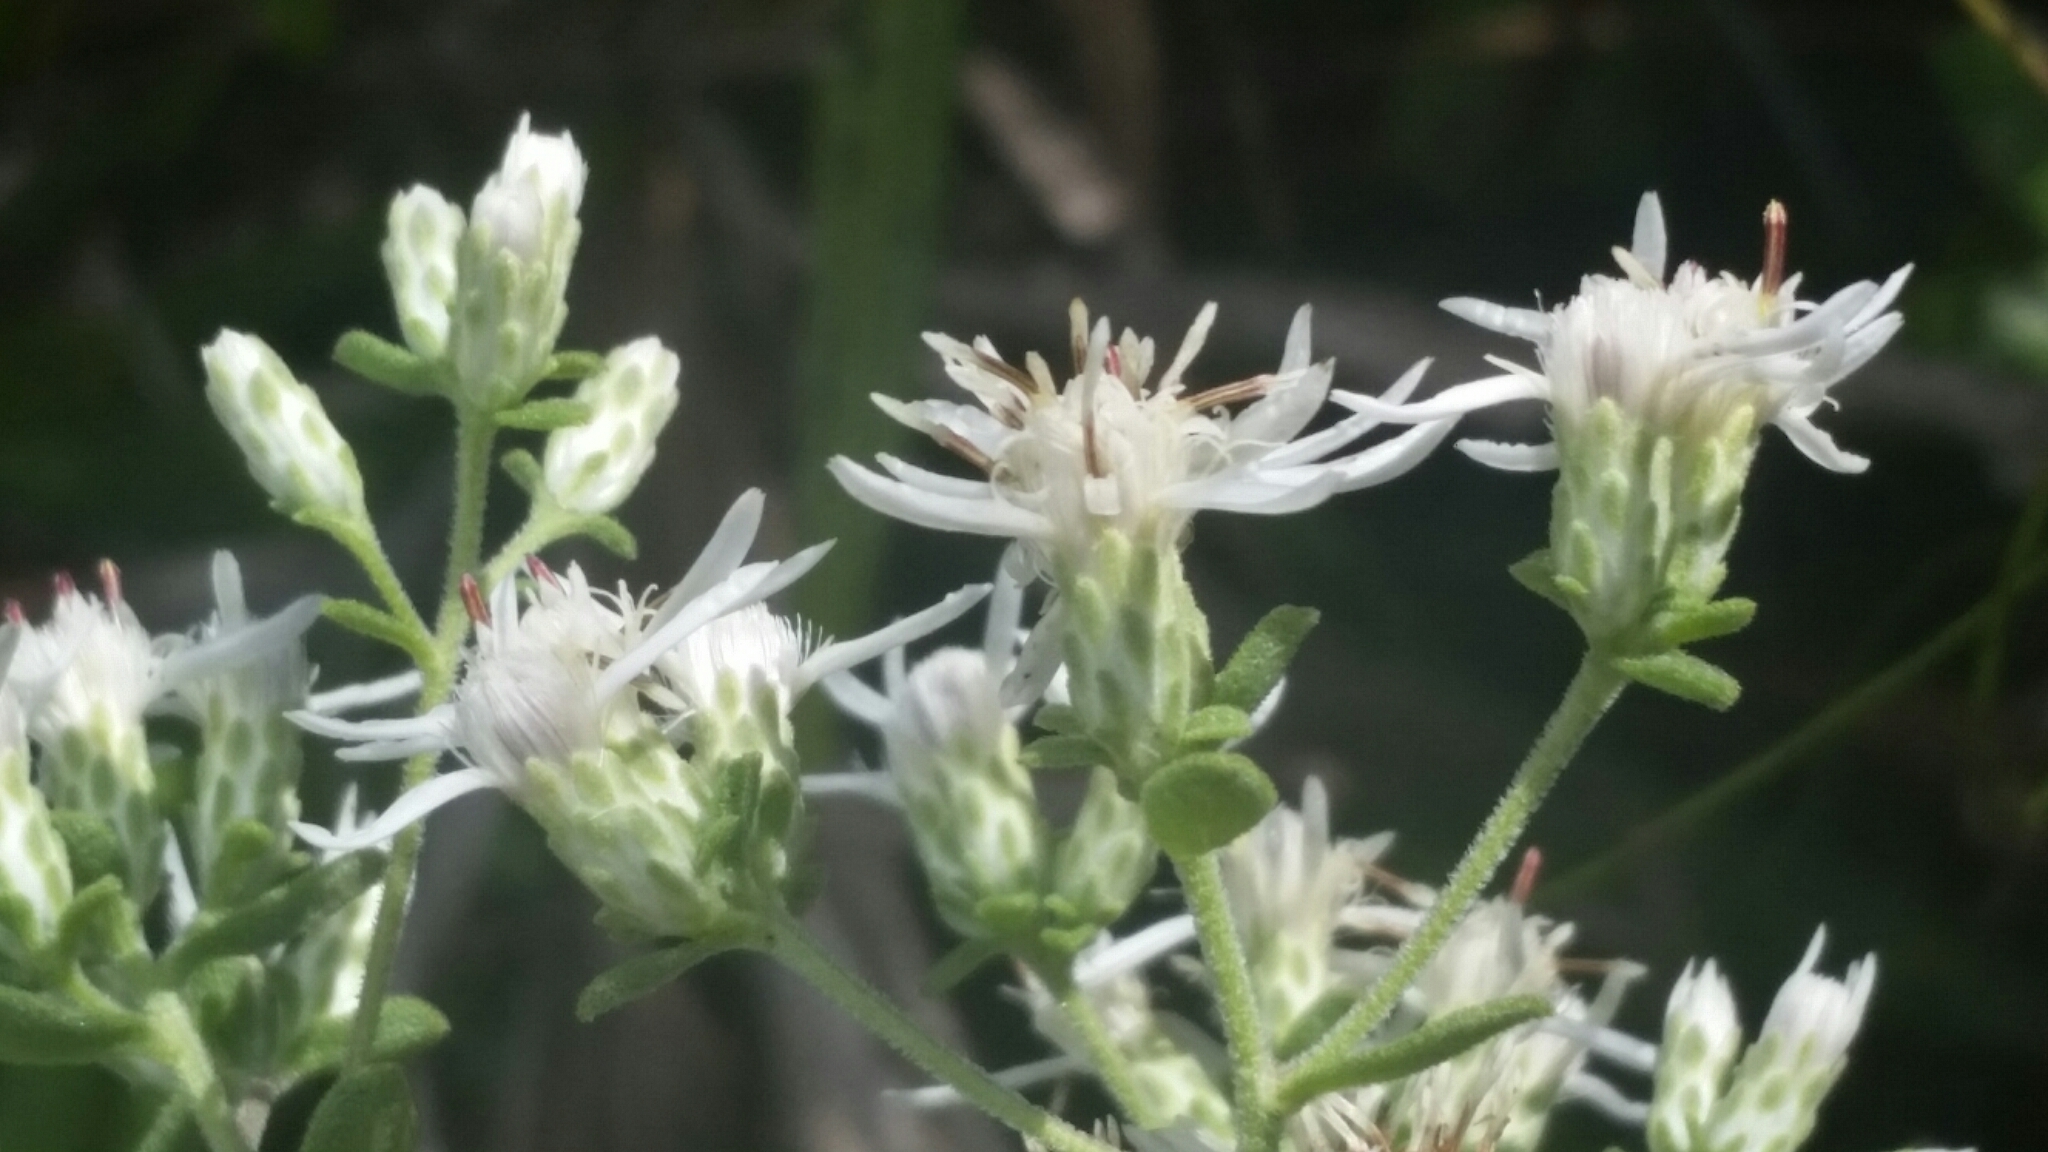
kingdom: Plantae
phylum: Tracheophyta
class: Magnoliopsida
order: Asterales
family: Asteraceae
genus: Sericocarpus
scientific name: Sericocarpus tortifolius
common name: Dixie aster
